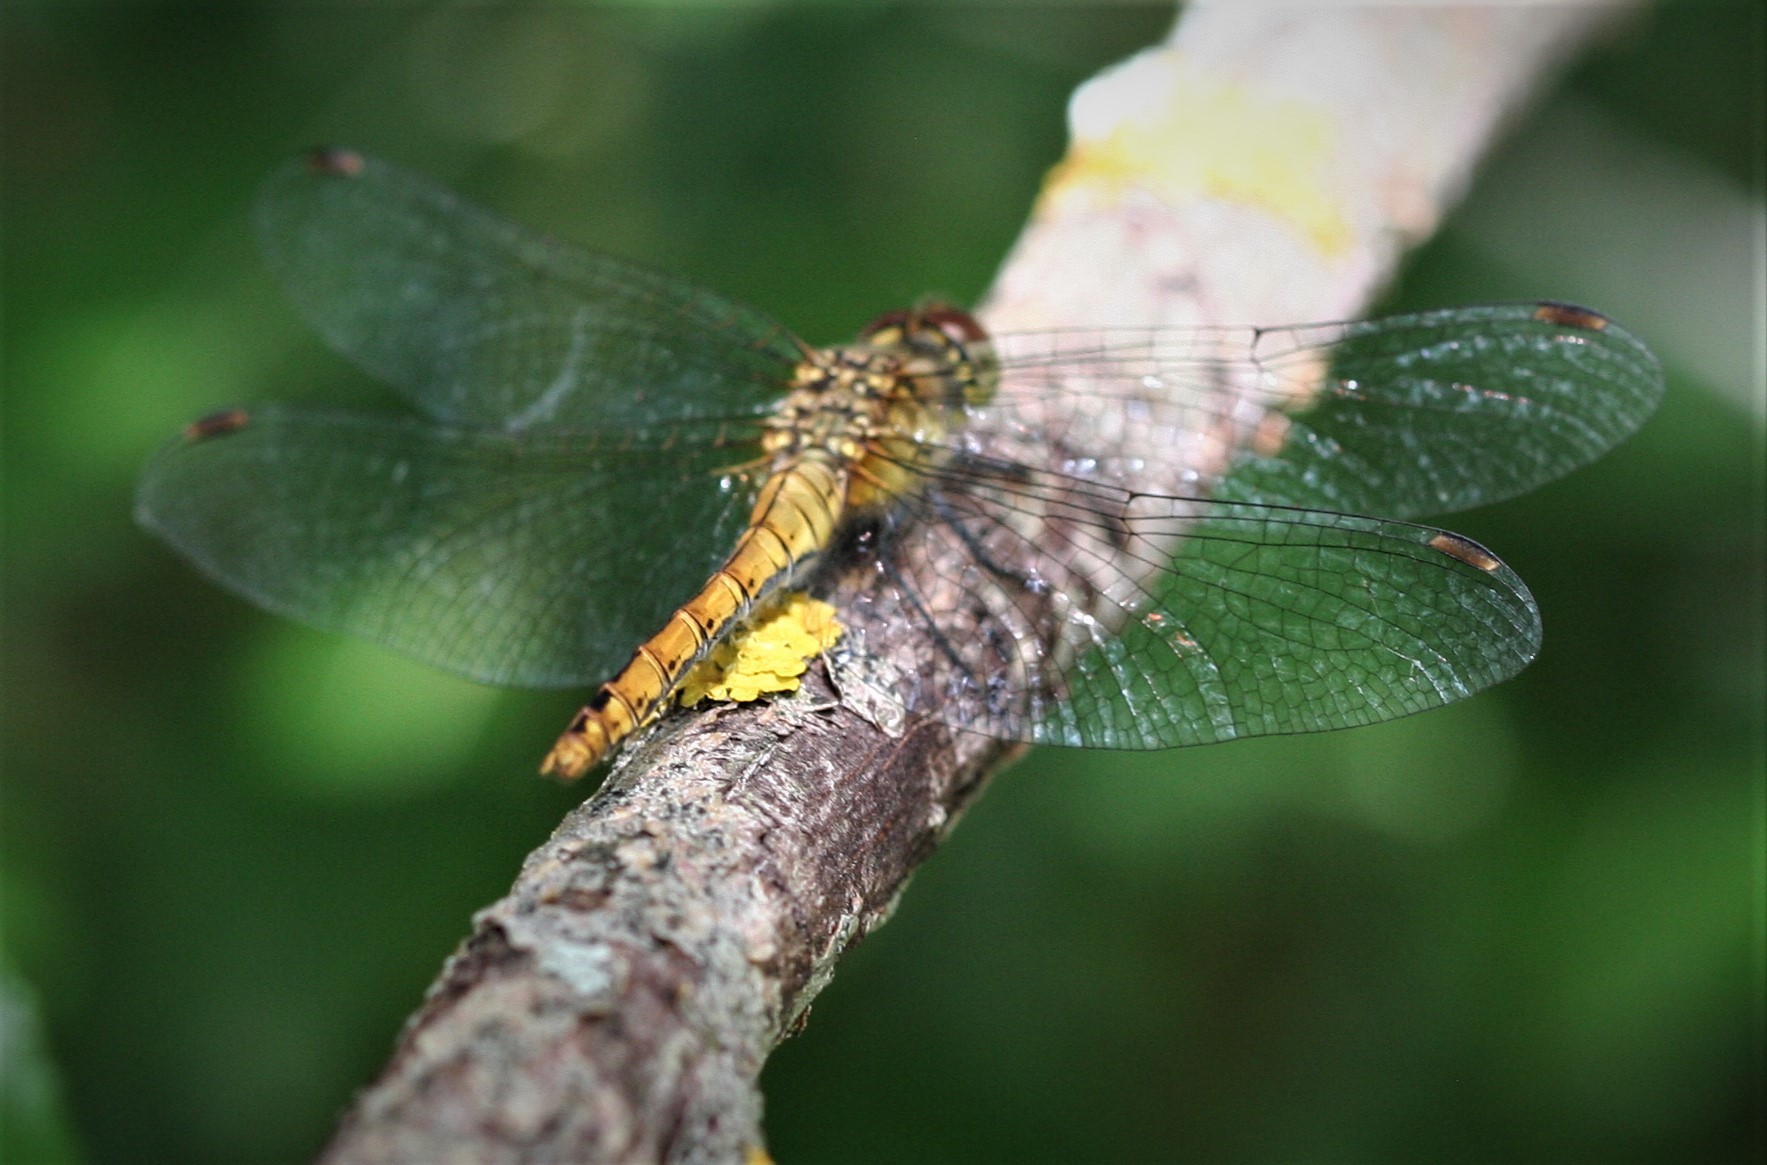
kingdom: Animalia
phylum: Arthropoda
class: Insecta
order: Odonata
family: Libellulidae
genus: Sympetrum
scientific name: Sympetrum sanguineum
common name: Ruddy darter
